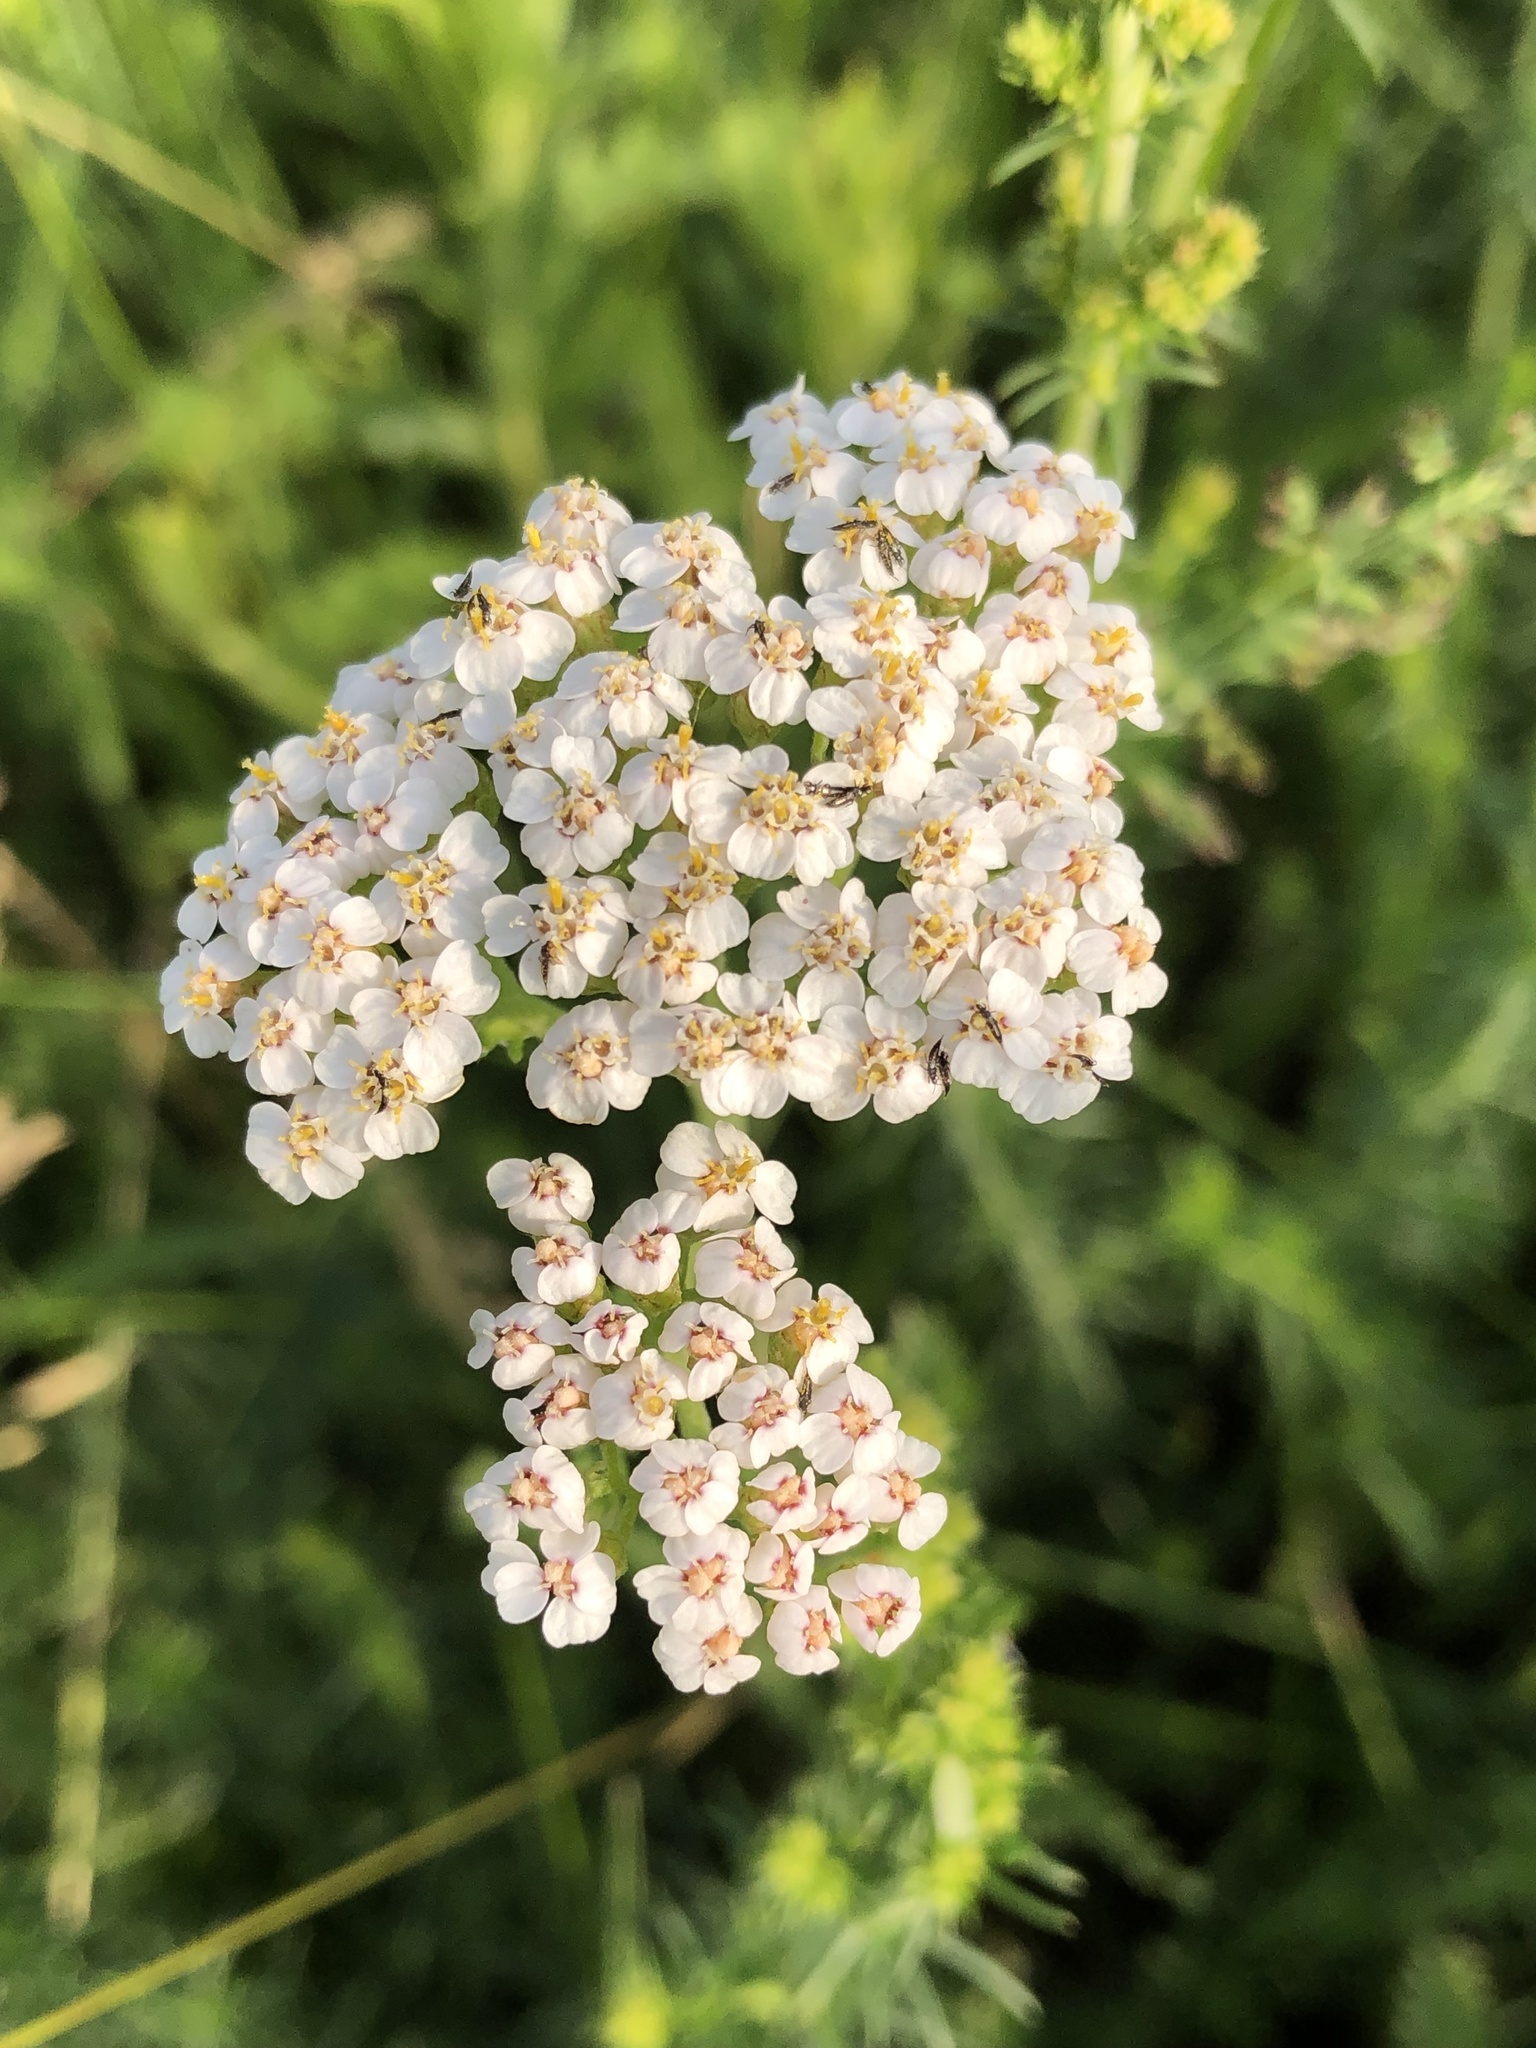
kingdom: Plantae
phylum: Tracheophyta
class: Magnoliopsida
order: Asterales
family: Asteraceae
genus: Achillea
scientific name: Achillea millefolium
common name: Yarrow
